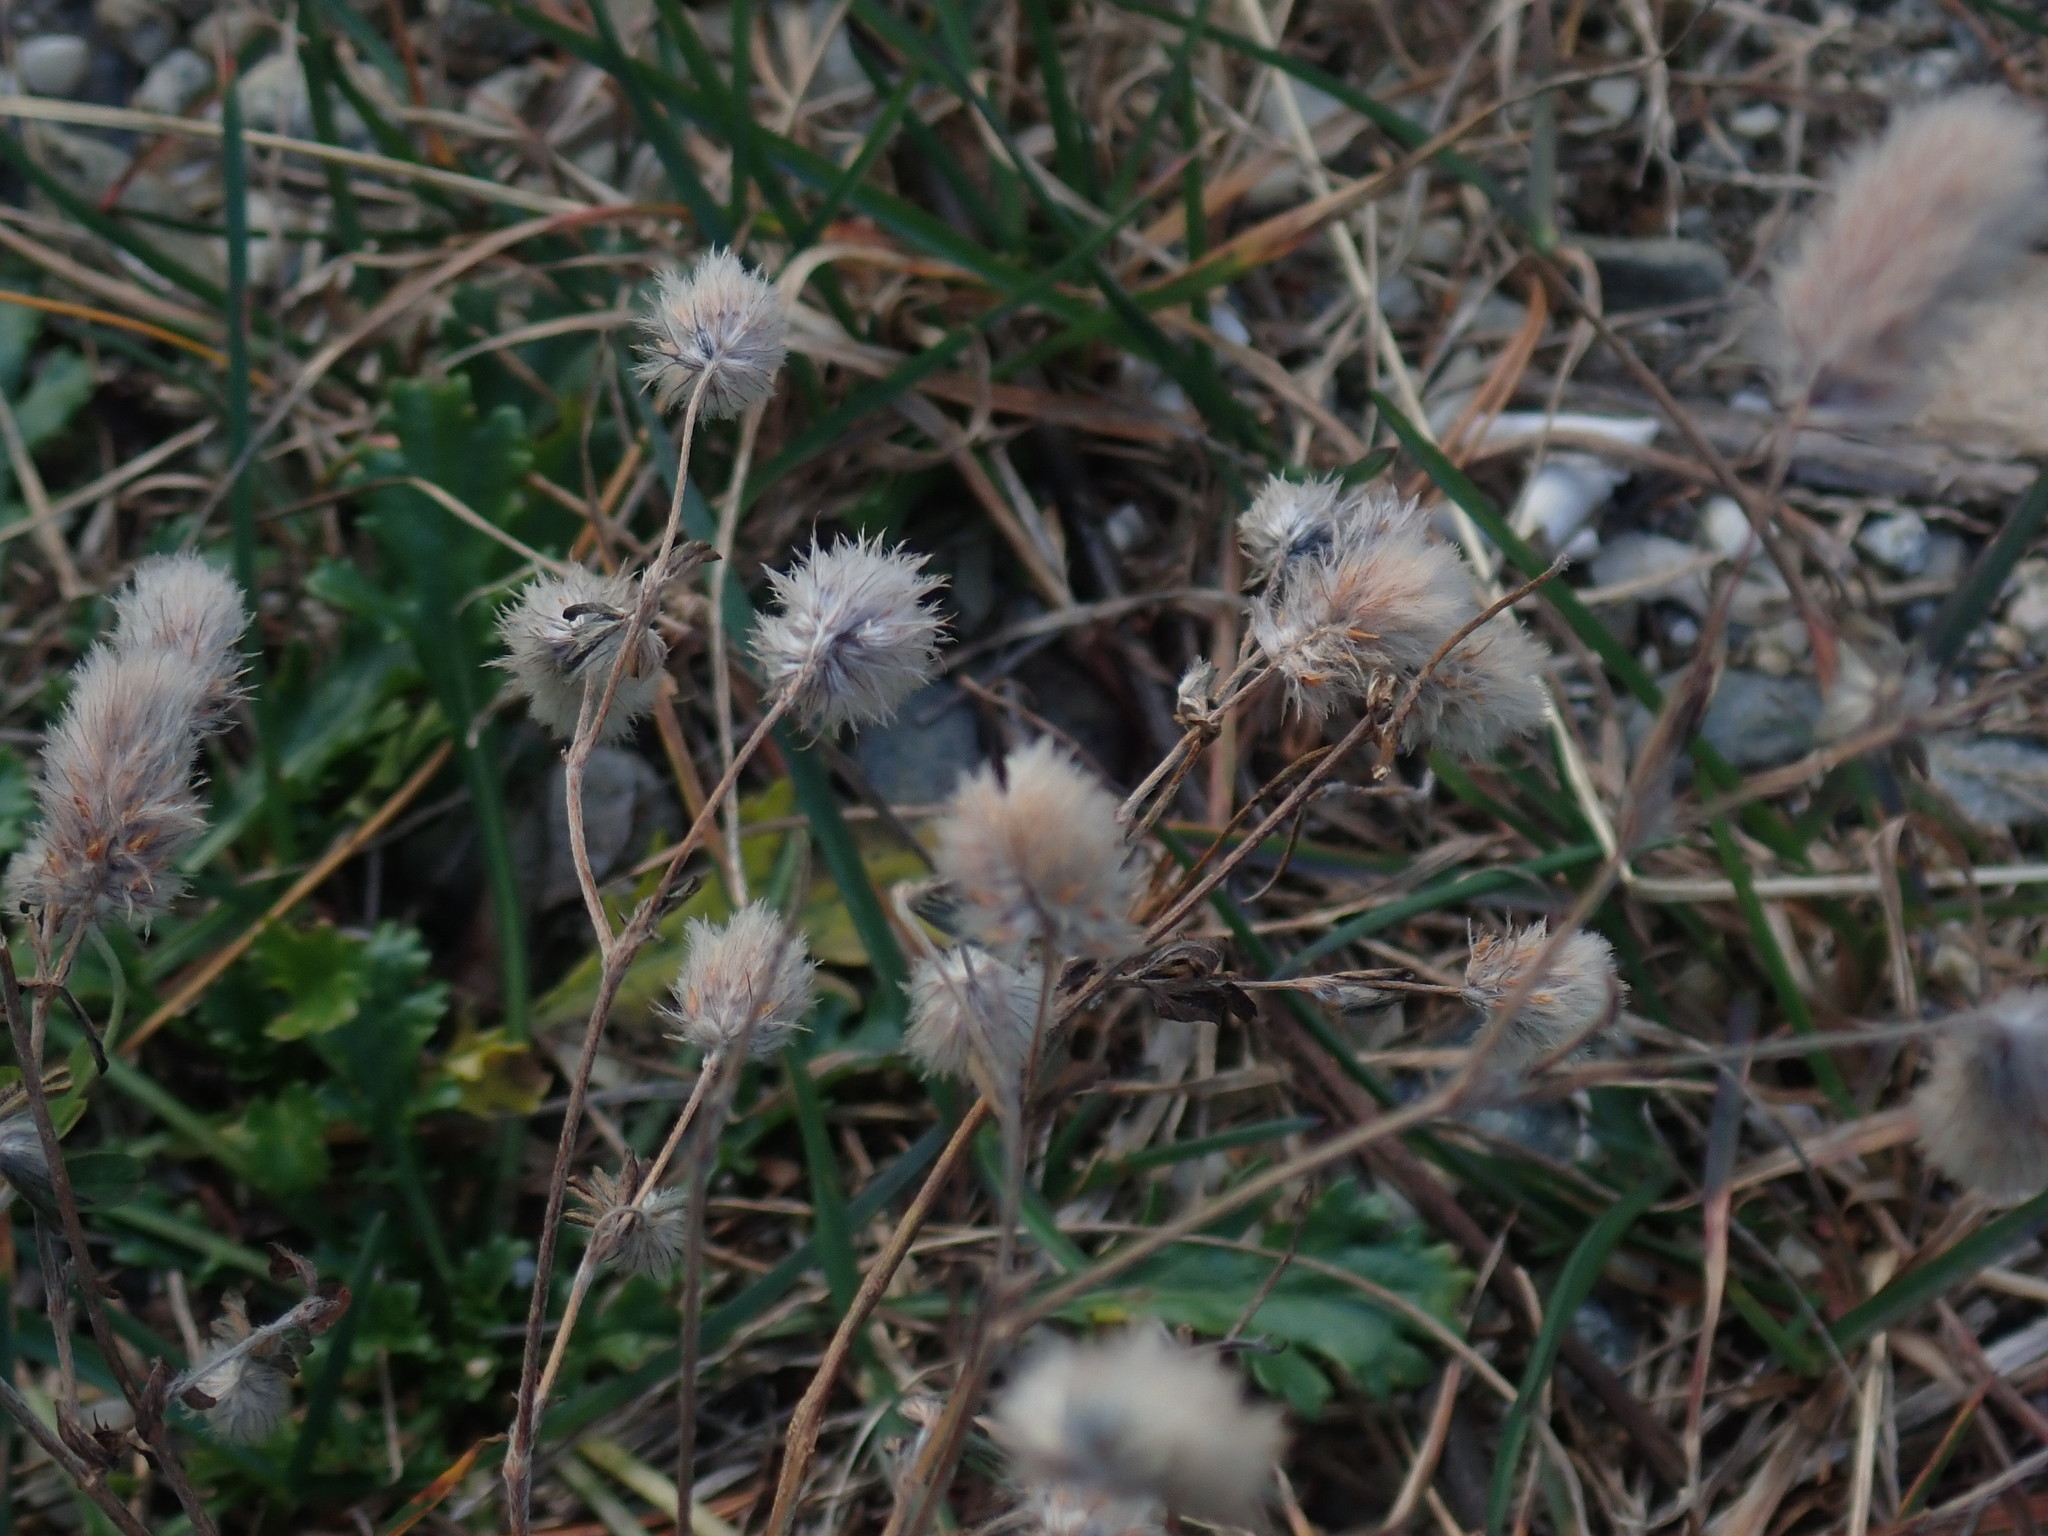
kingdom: Plantae
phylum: Tracheophyta
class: Magnoliopsida
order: Fabales
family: Fabaceae
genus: Trifolium
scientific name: Trifolium arvense
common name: Hare's-foot clover
